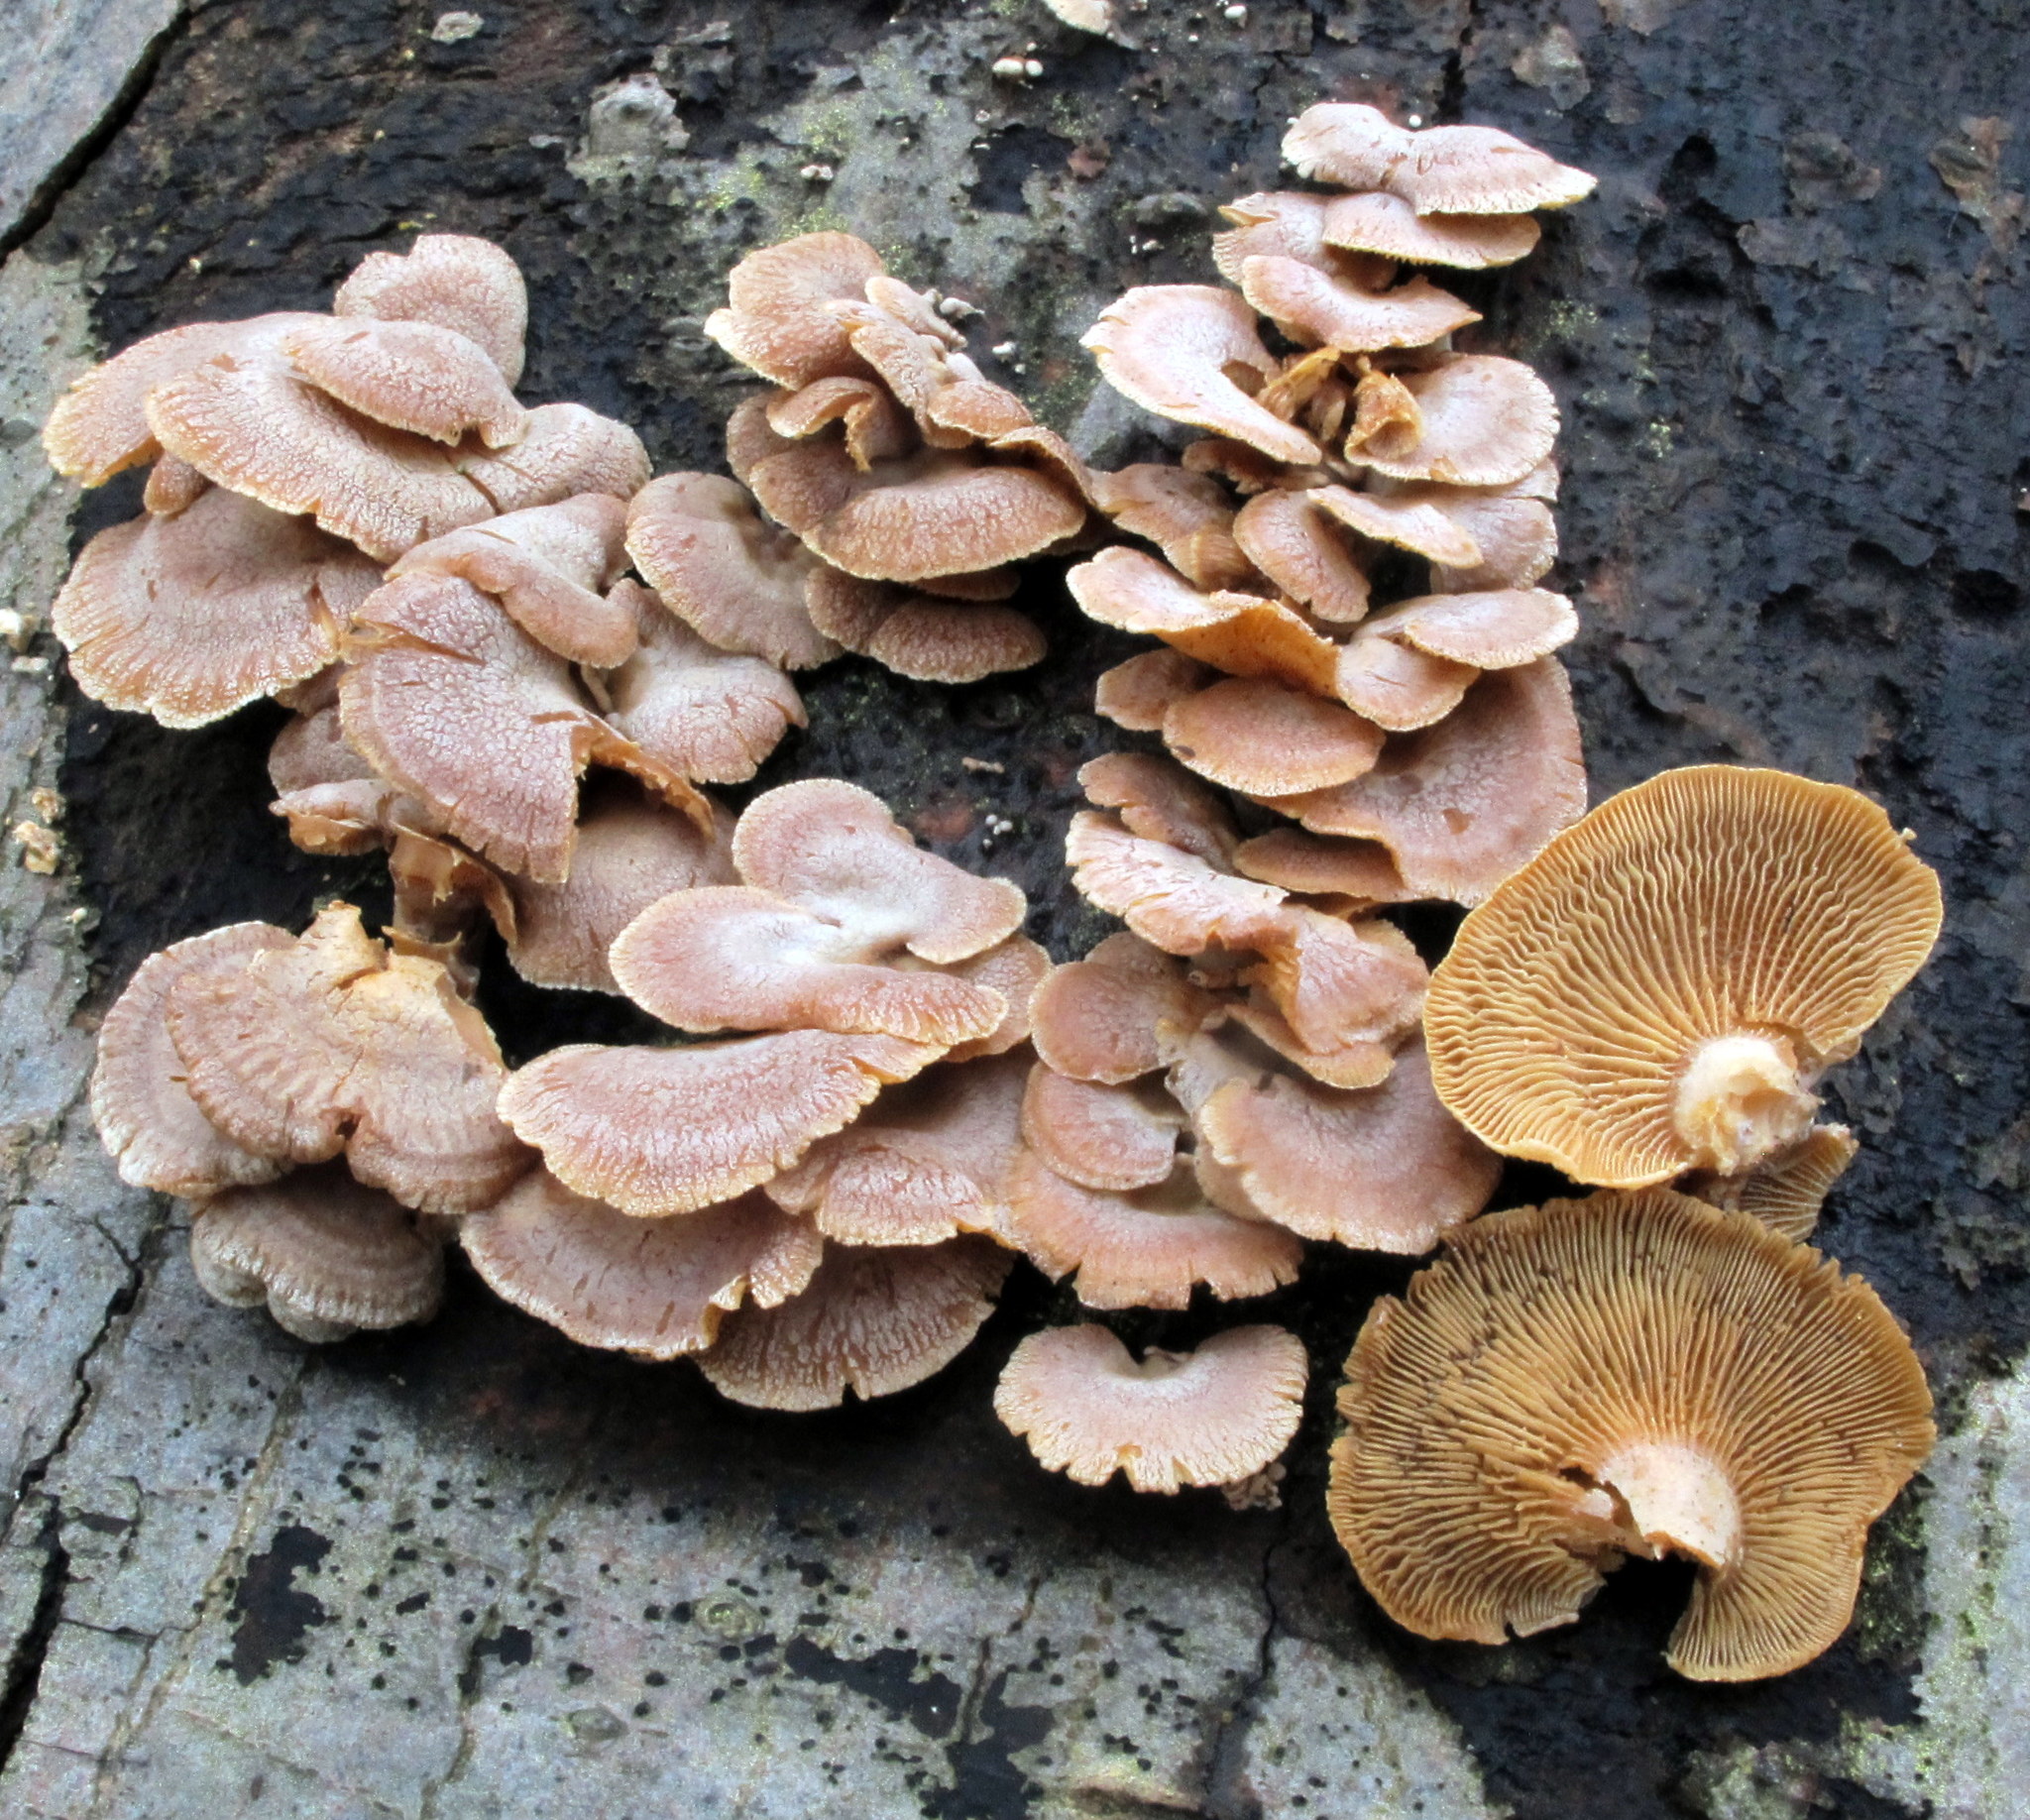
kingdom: Fungi
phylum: Basidiomycota
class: Agaricomycetes
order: Agaricales
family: Mycenaceae
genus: Panellus
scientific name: Panellus stipticus
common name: Bitter oysterling
